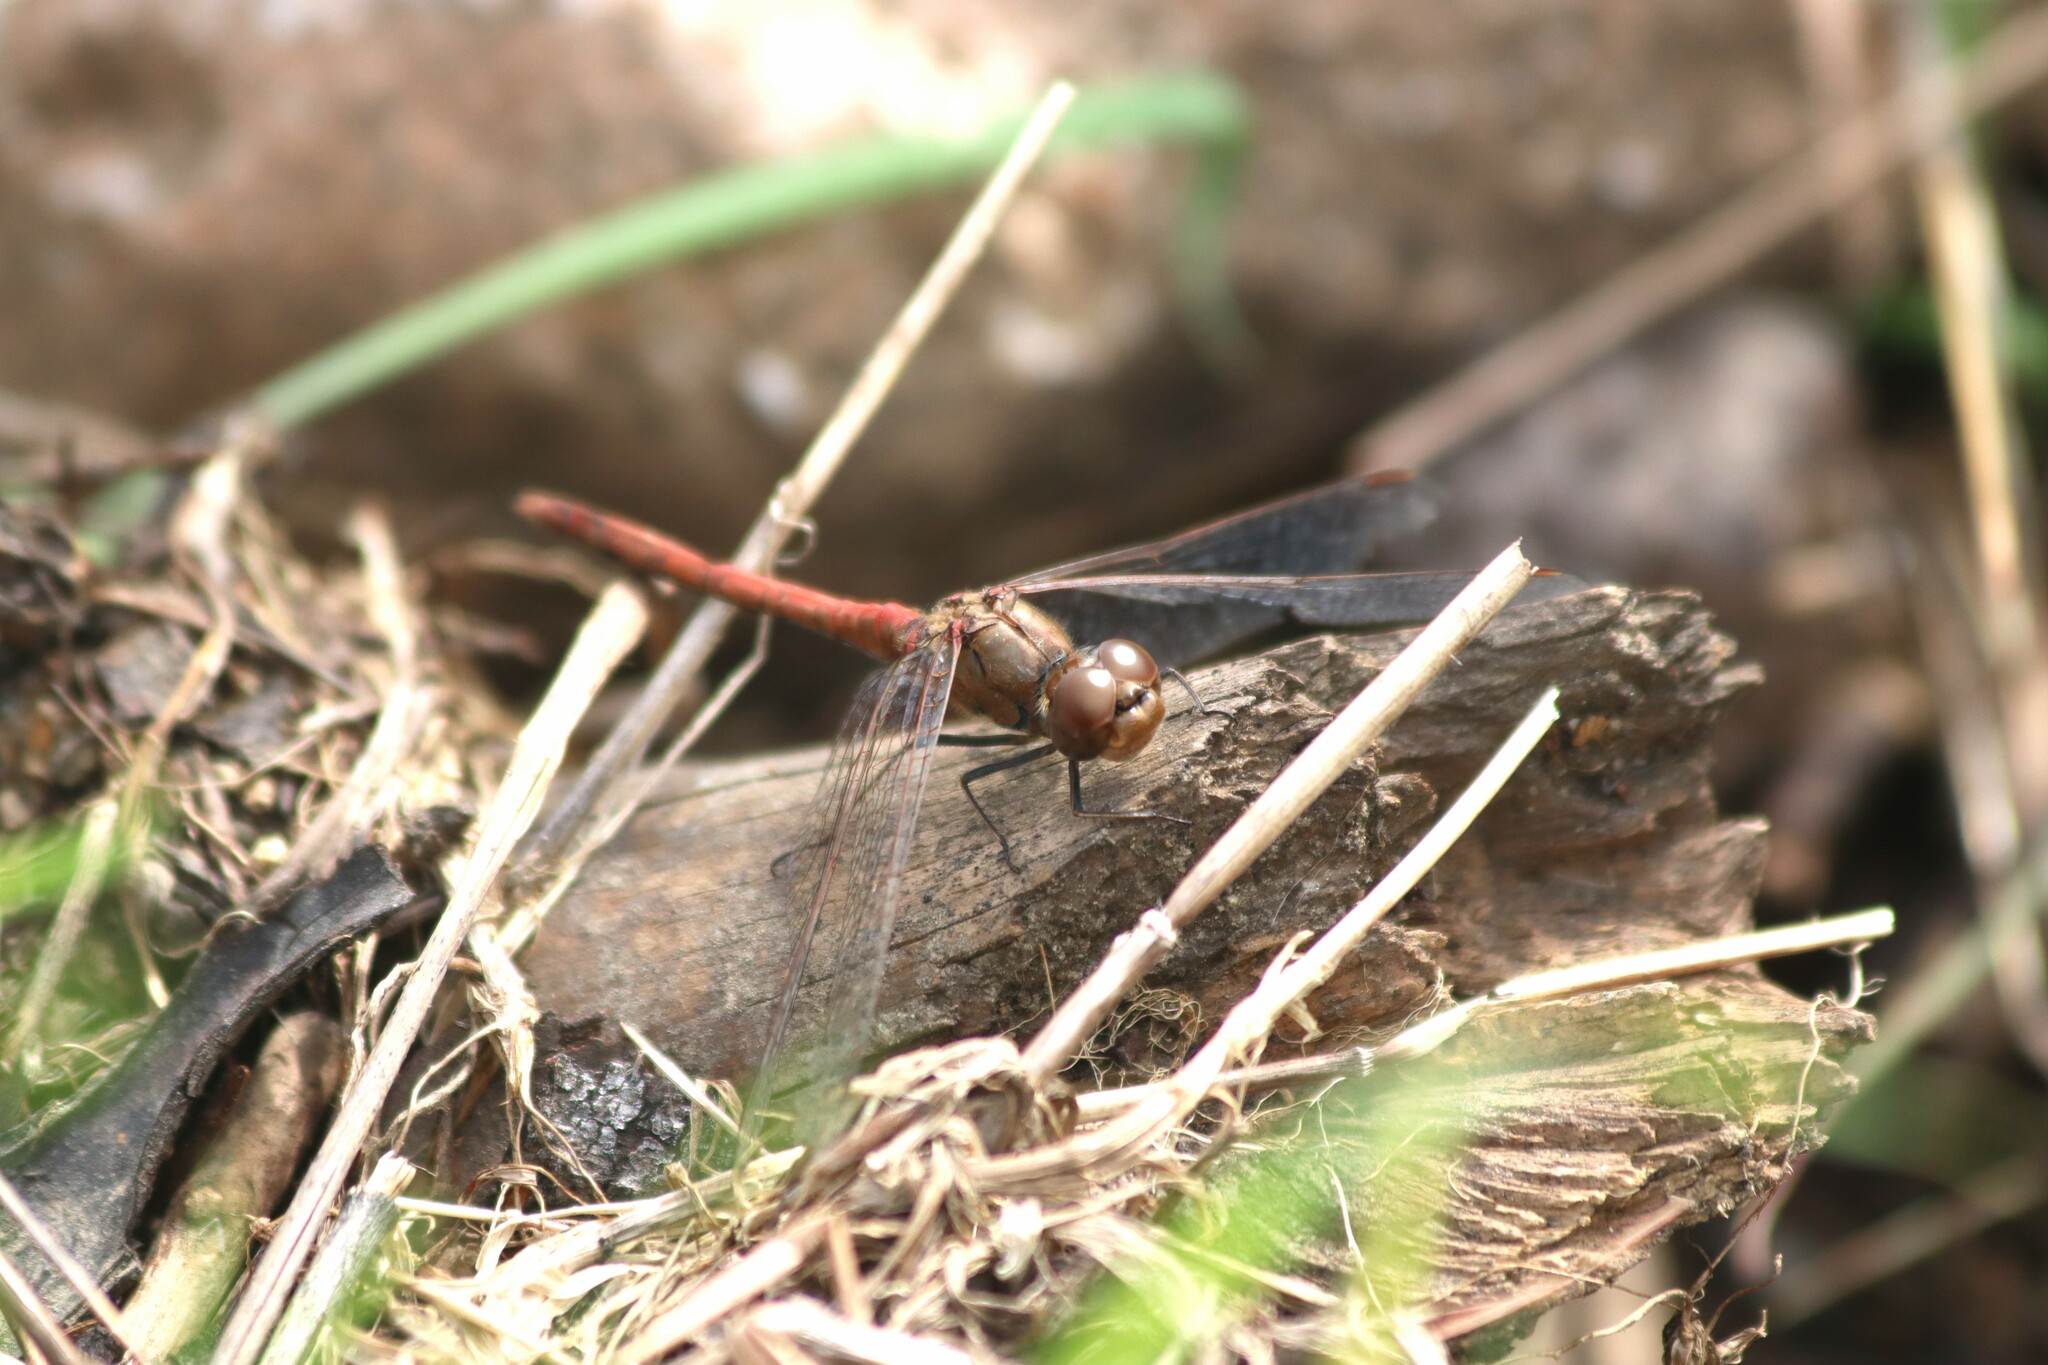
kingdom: Animalia
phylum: Arthropoda
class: Insecta
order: Odonata
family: Libellulidae
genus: Sympetrum
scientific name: Sympetrum striolatum
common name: Common darter
